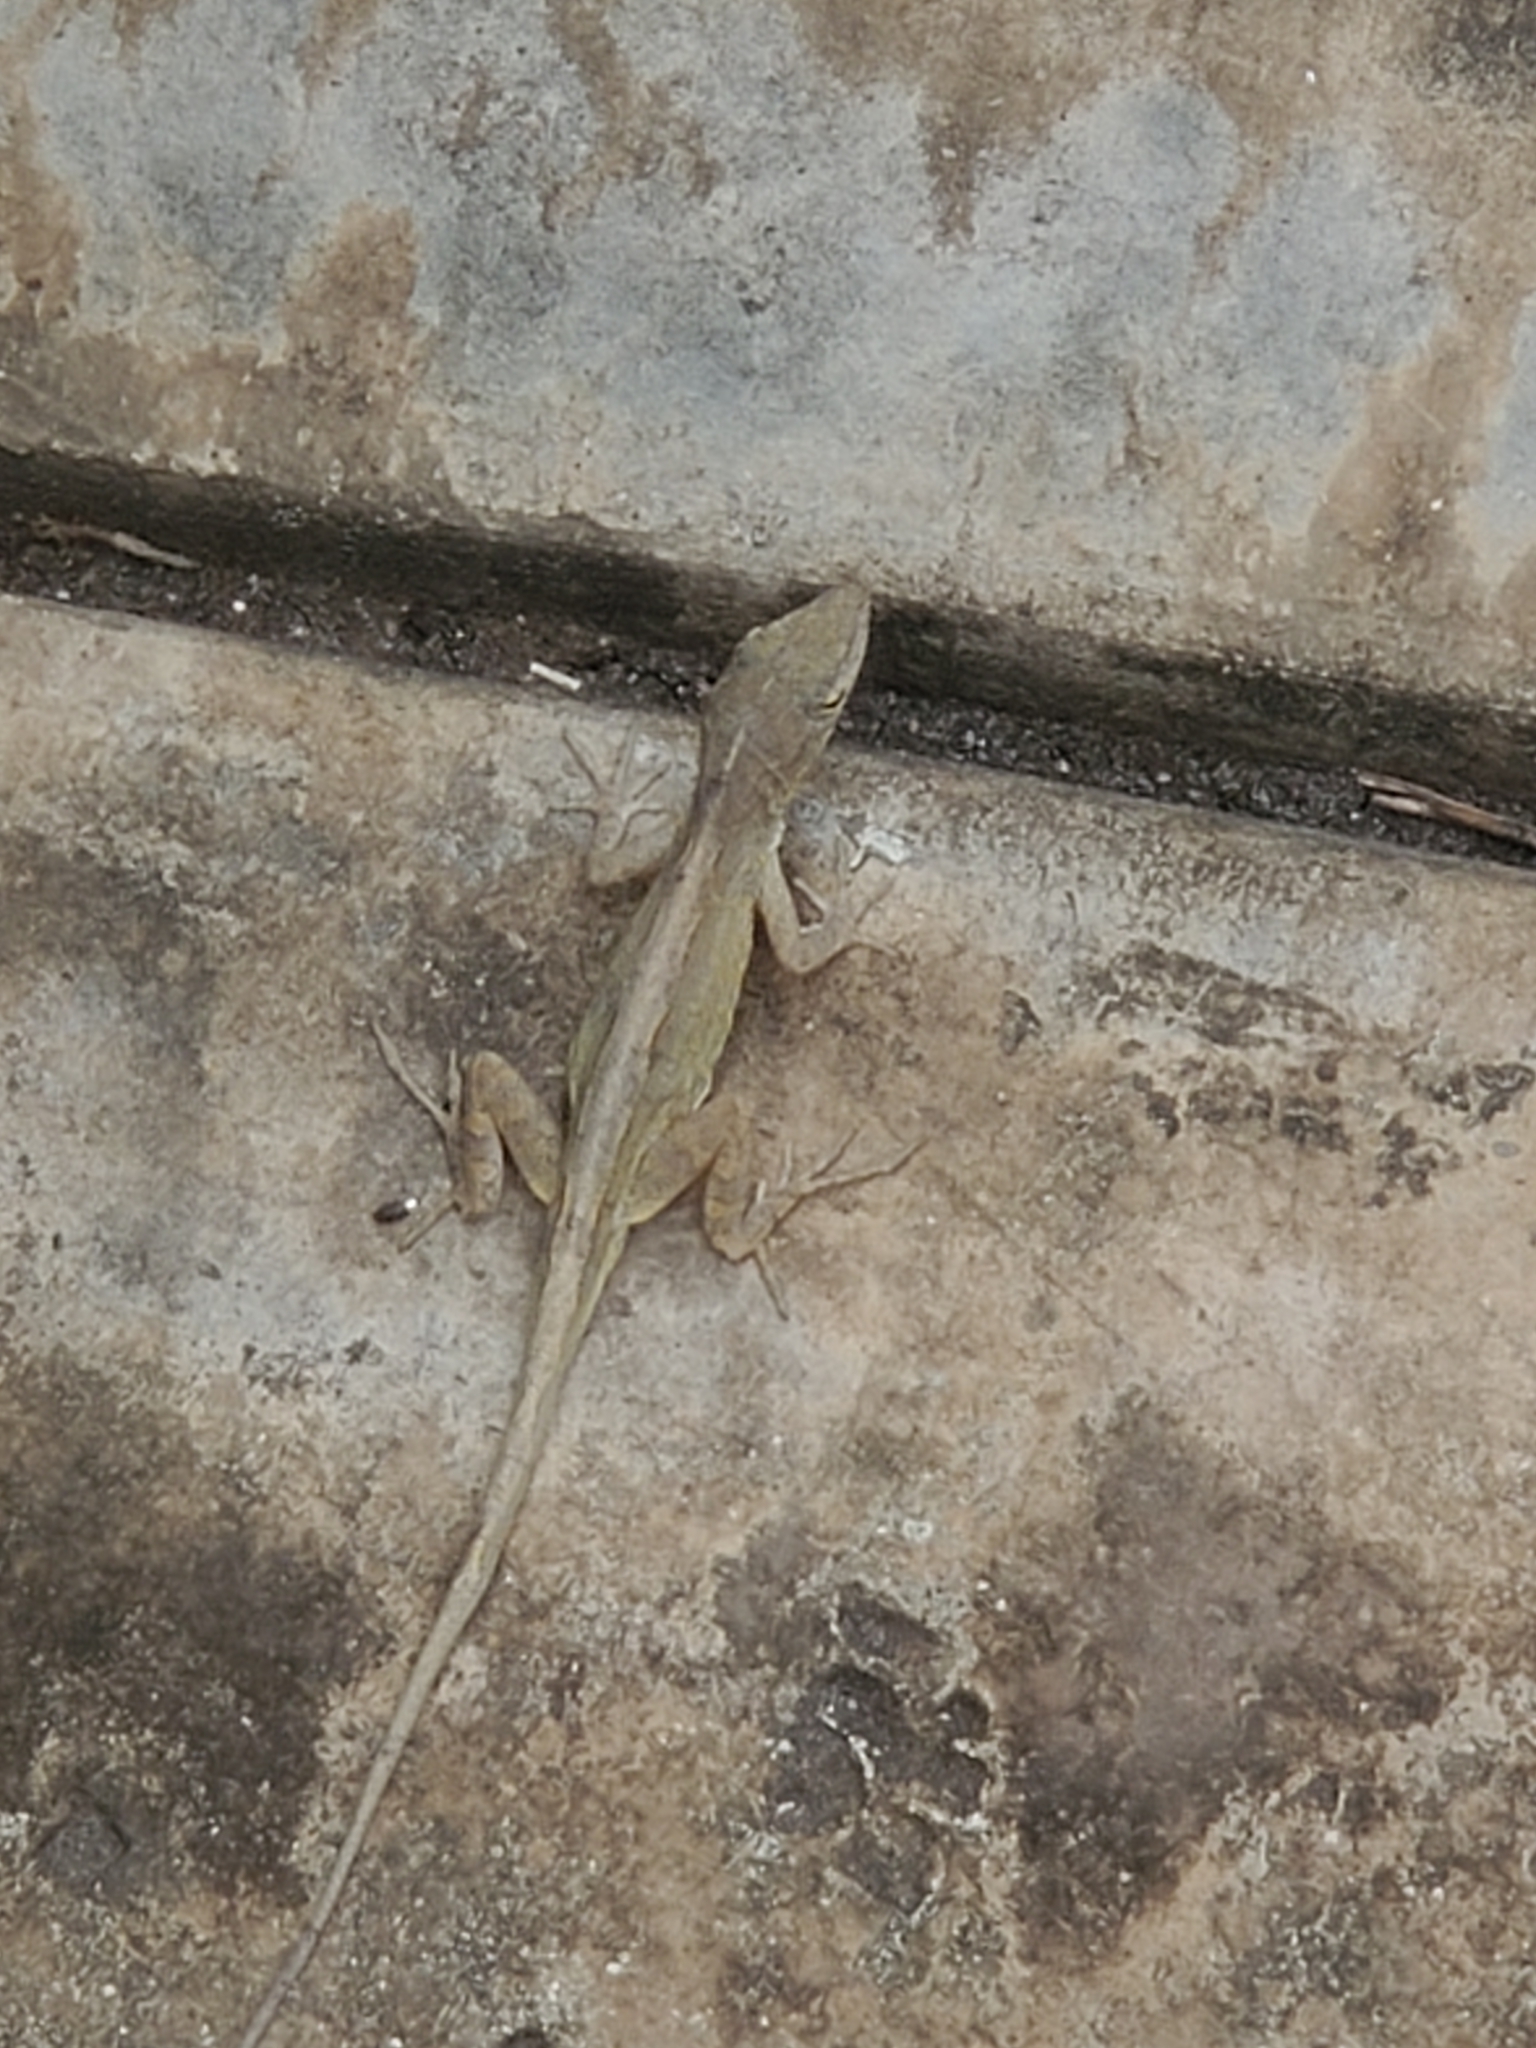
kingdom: Animalia
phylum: Chordata
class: Squamata
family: Dactyloidae
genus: Anolis
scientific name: Anolis sagrei
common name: Brown anole
